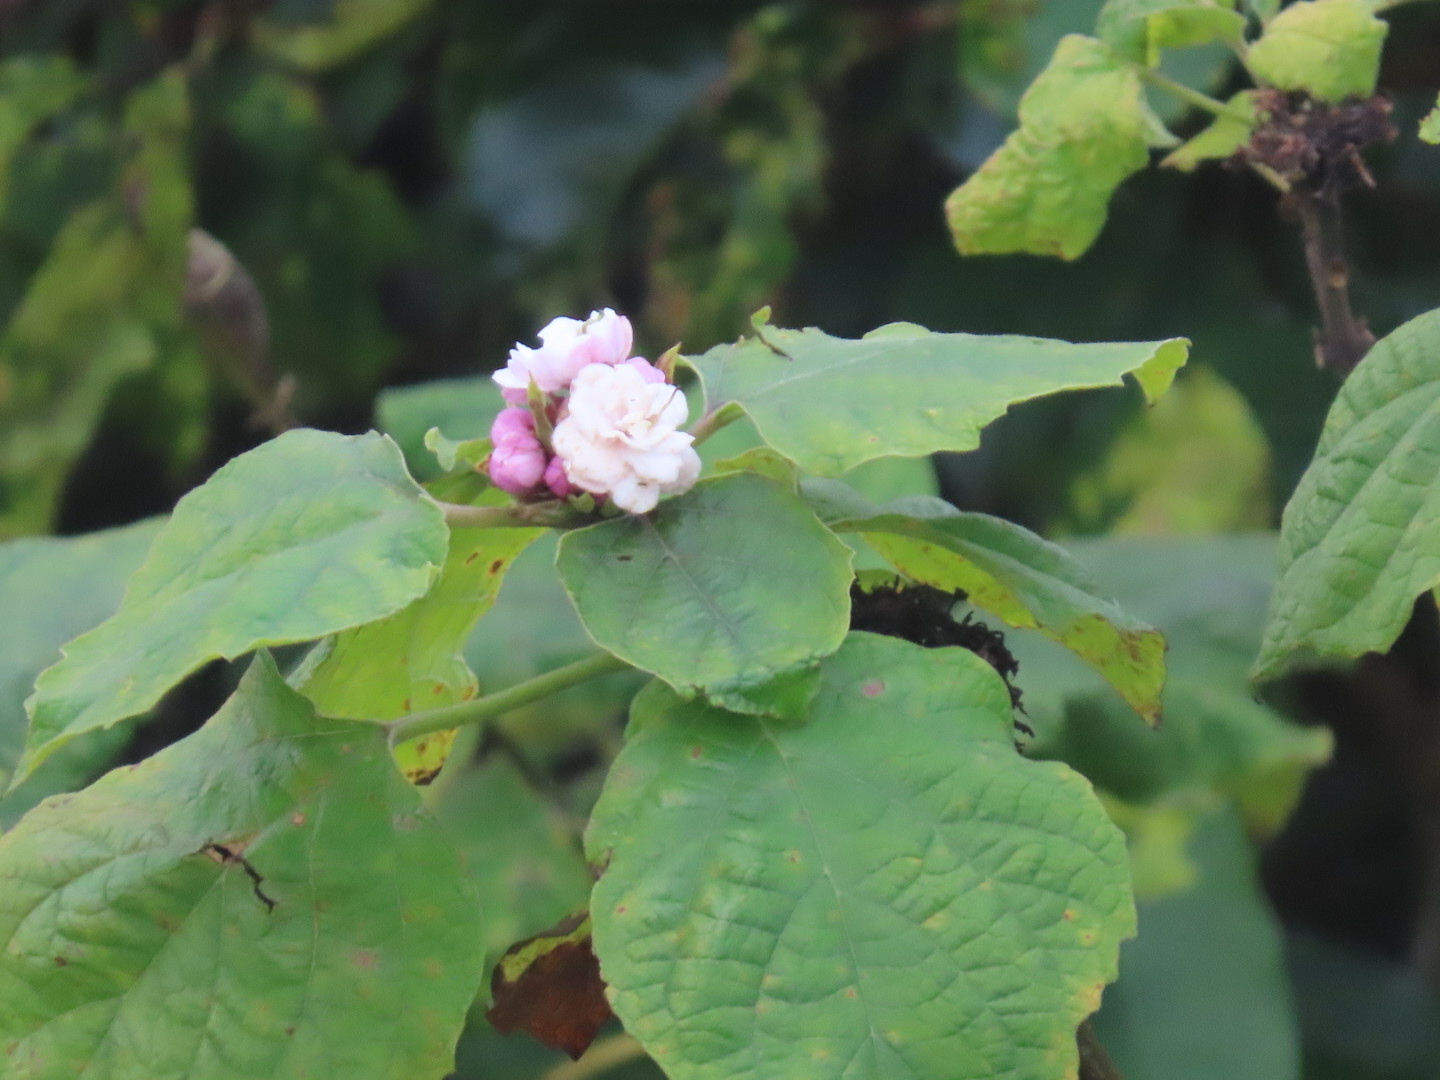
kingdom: Plantae
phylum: Tracheophyta
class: Magnoliopsida
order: Lamiales
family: Lamiaceae
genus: Clerodendrum
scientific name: Clerodendrum chinense
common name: Stickbush
